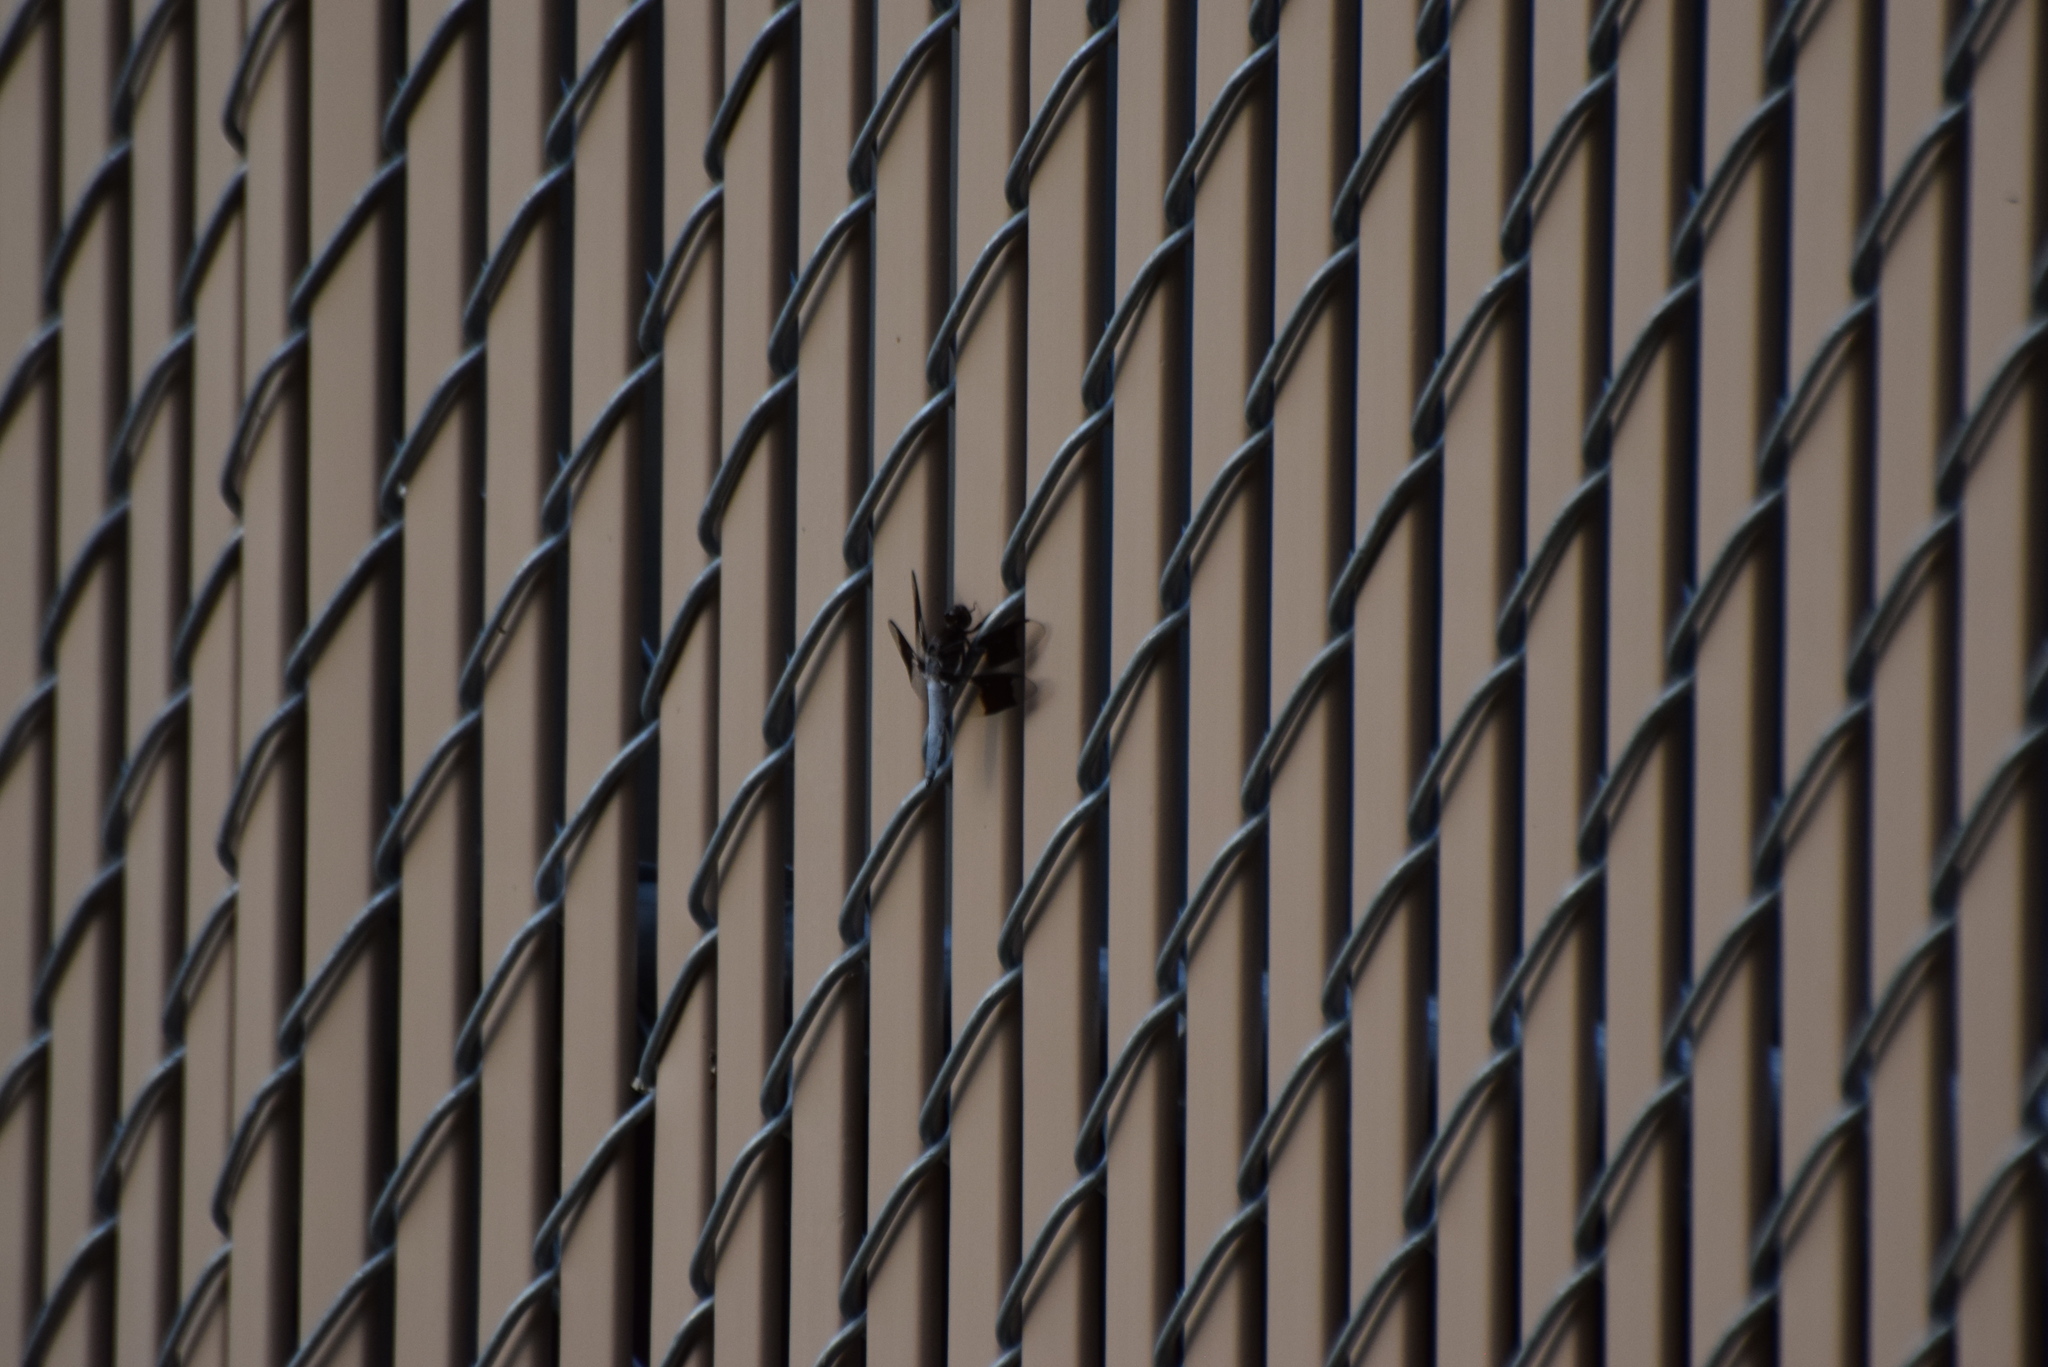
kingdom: Animalia
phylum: Arthropoda
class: Insecta
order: Odonata
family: Libellulidae
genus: Plathemis
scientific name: Plathemis lydia
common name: Common whitetail
